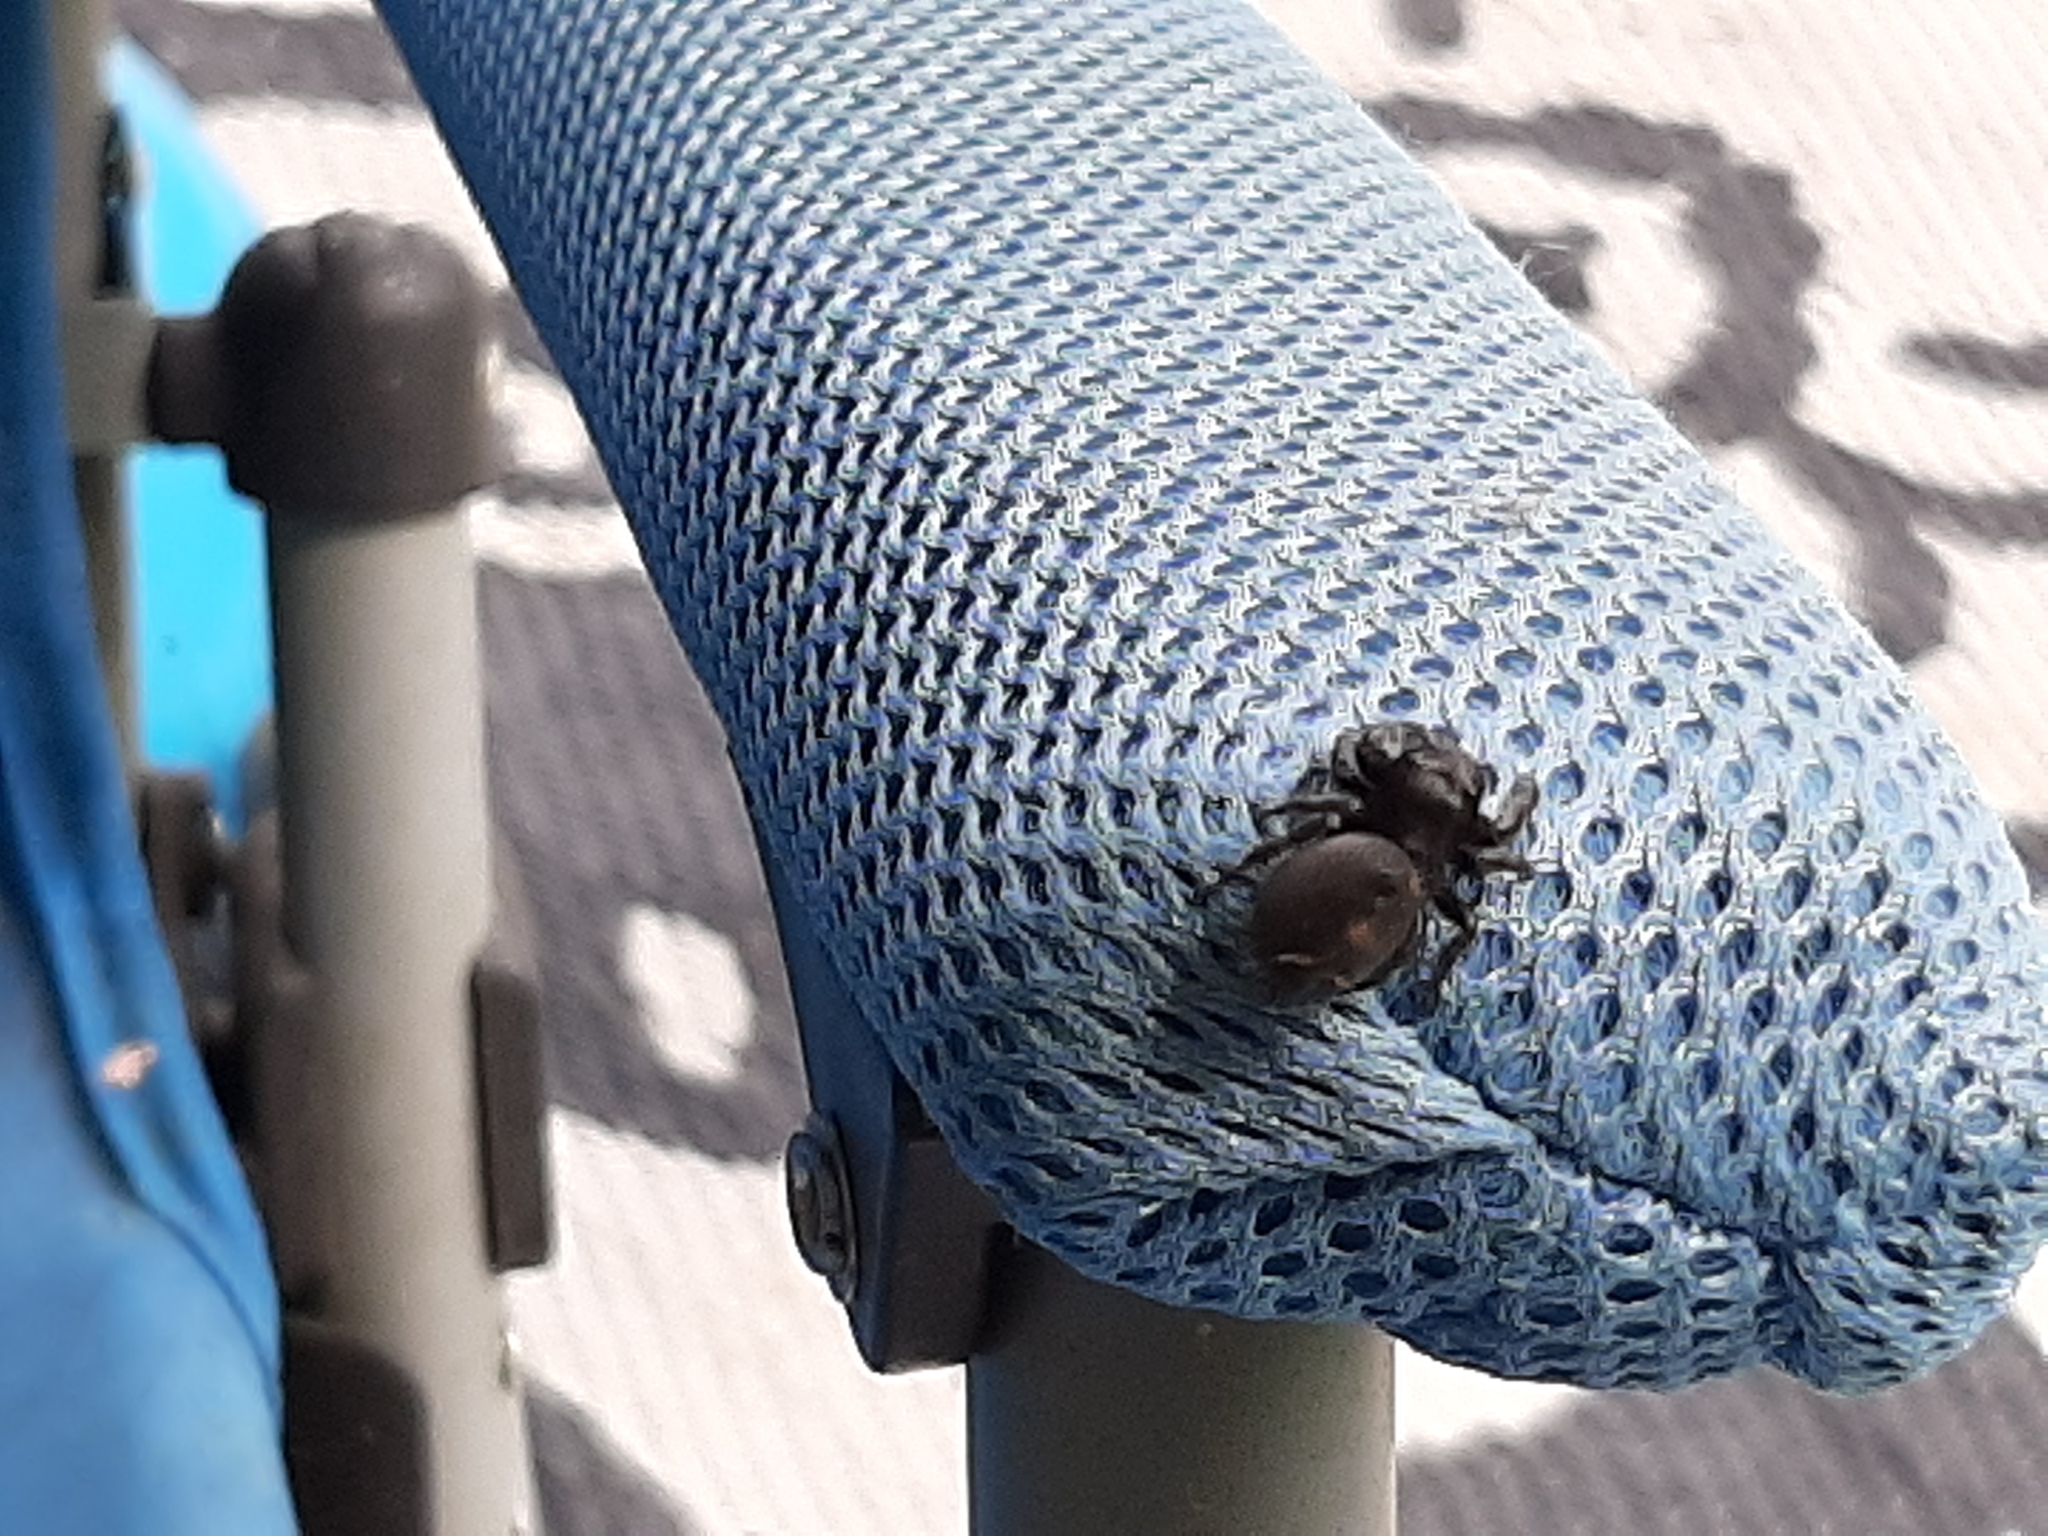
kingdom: Animalia
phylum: Arthropoda
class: Arachnida
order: Araneae
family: Salticidae
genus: Phidippus
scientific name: Phidippus audax
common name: Bold jumper
